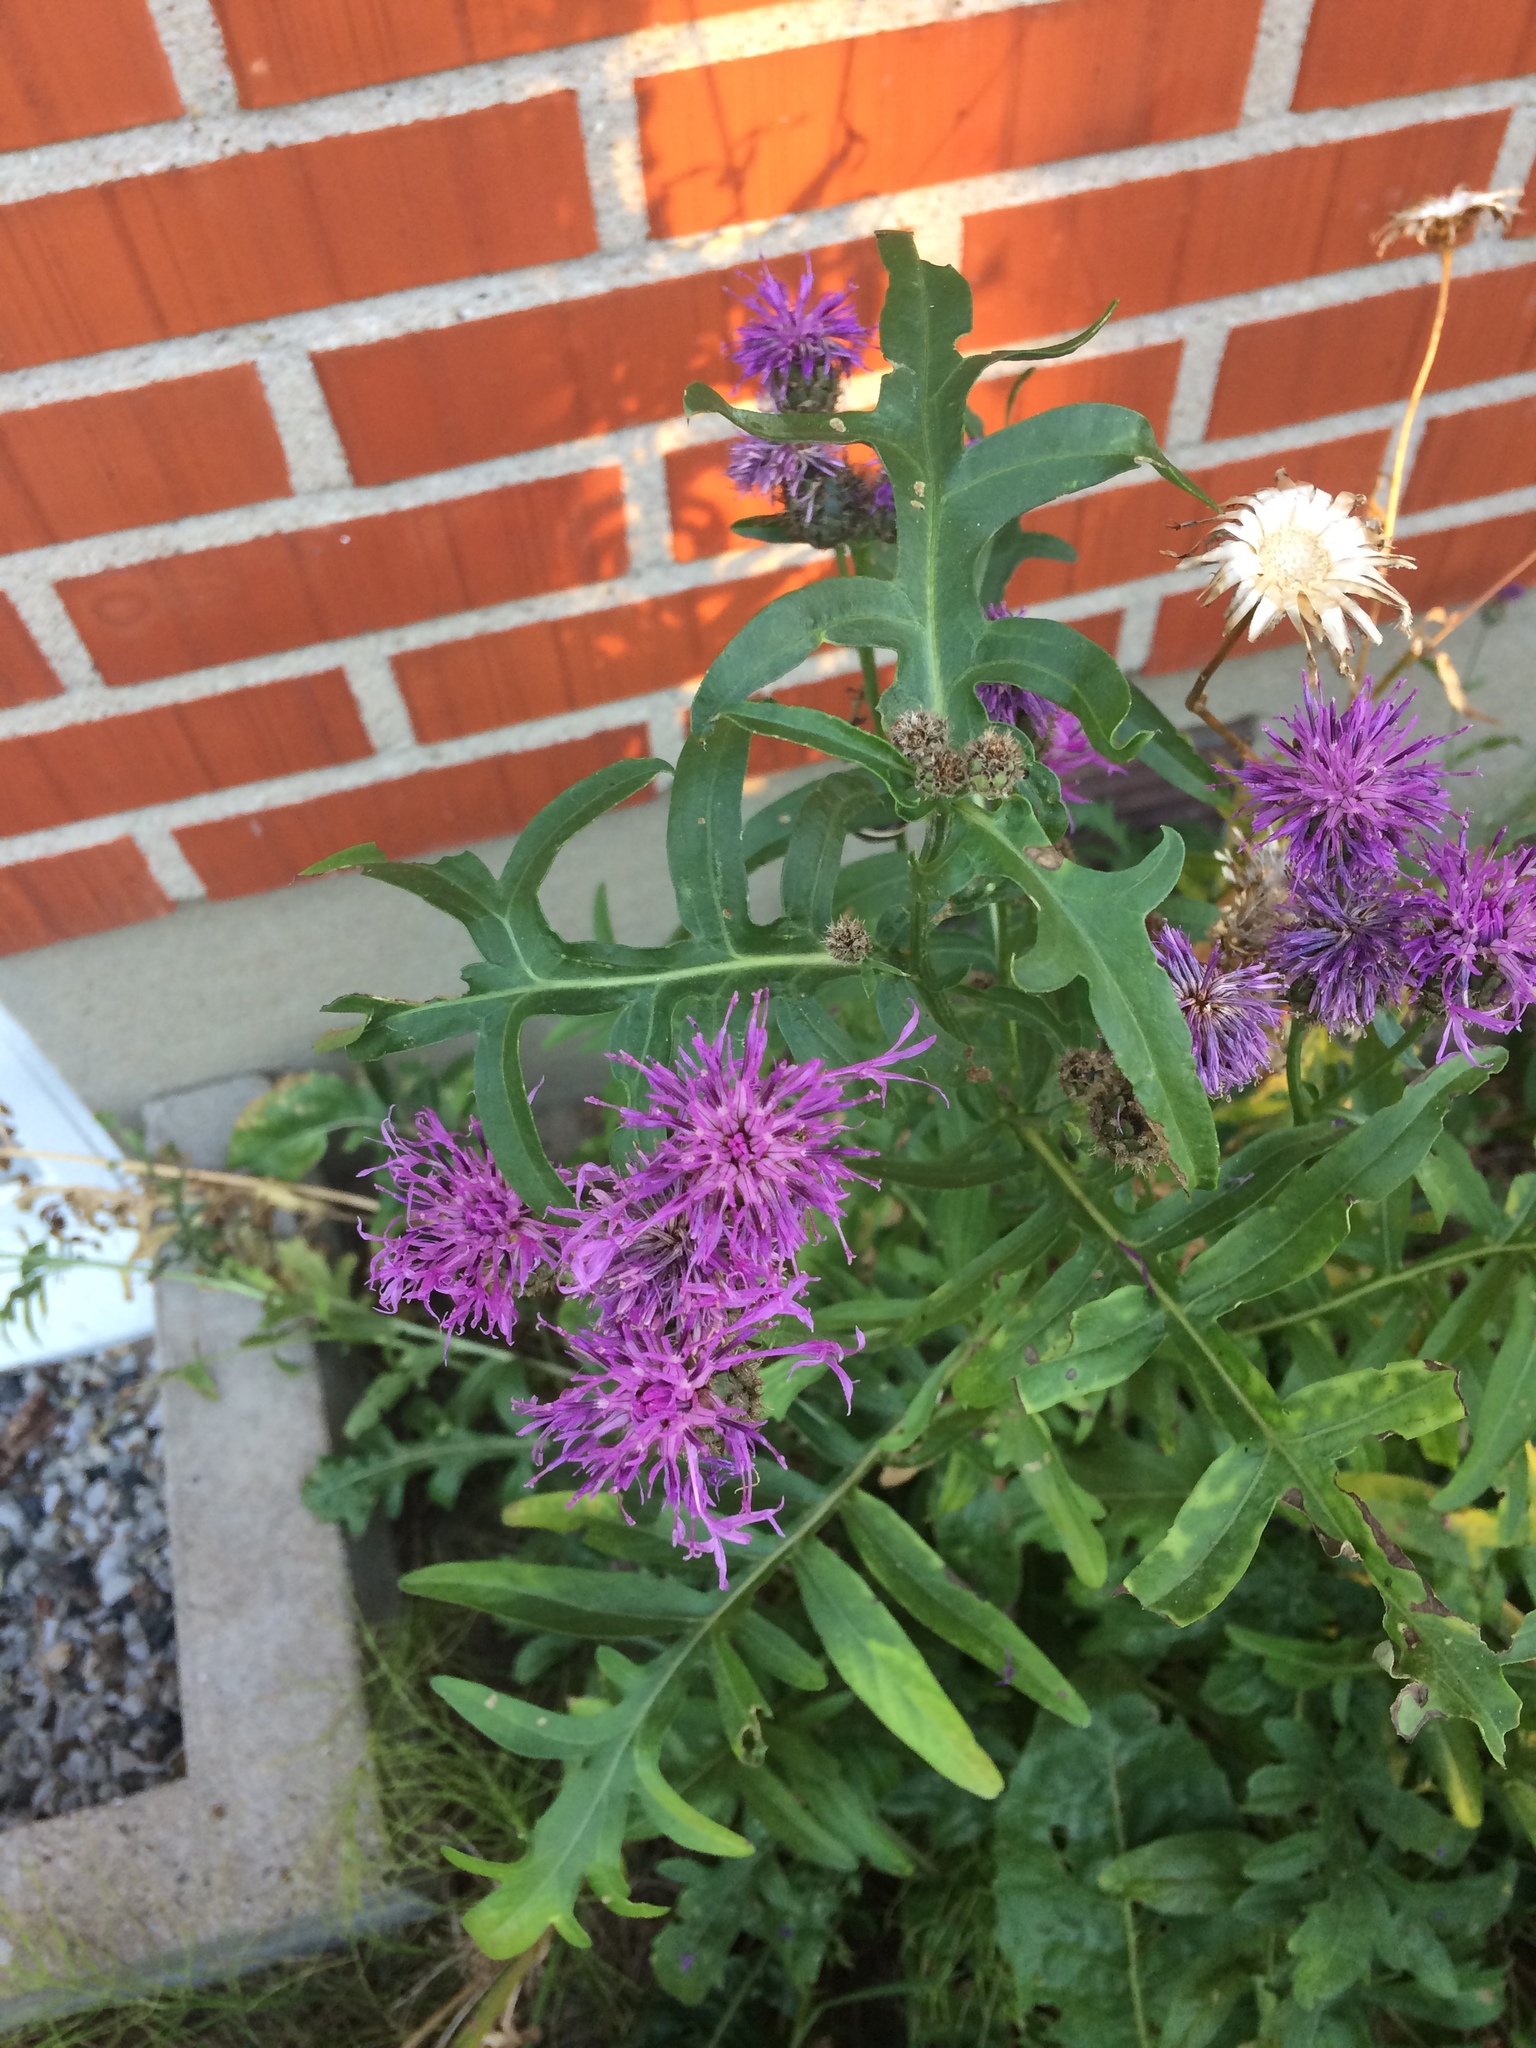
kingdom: Plantae
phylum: Tracheophyta
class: Magnoliopsida
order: Asterales
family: Asteraceae
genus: Centaurea
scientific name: Centaurea scabiosa
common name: Greater knapweed
